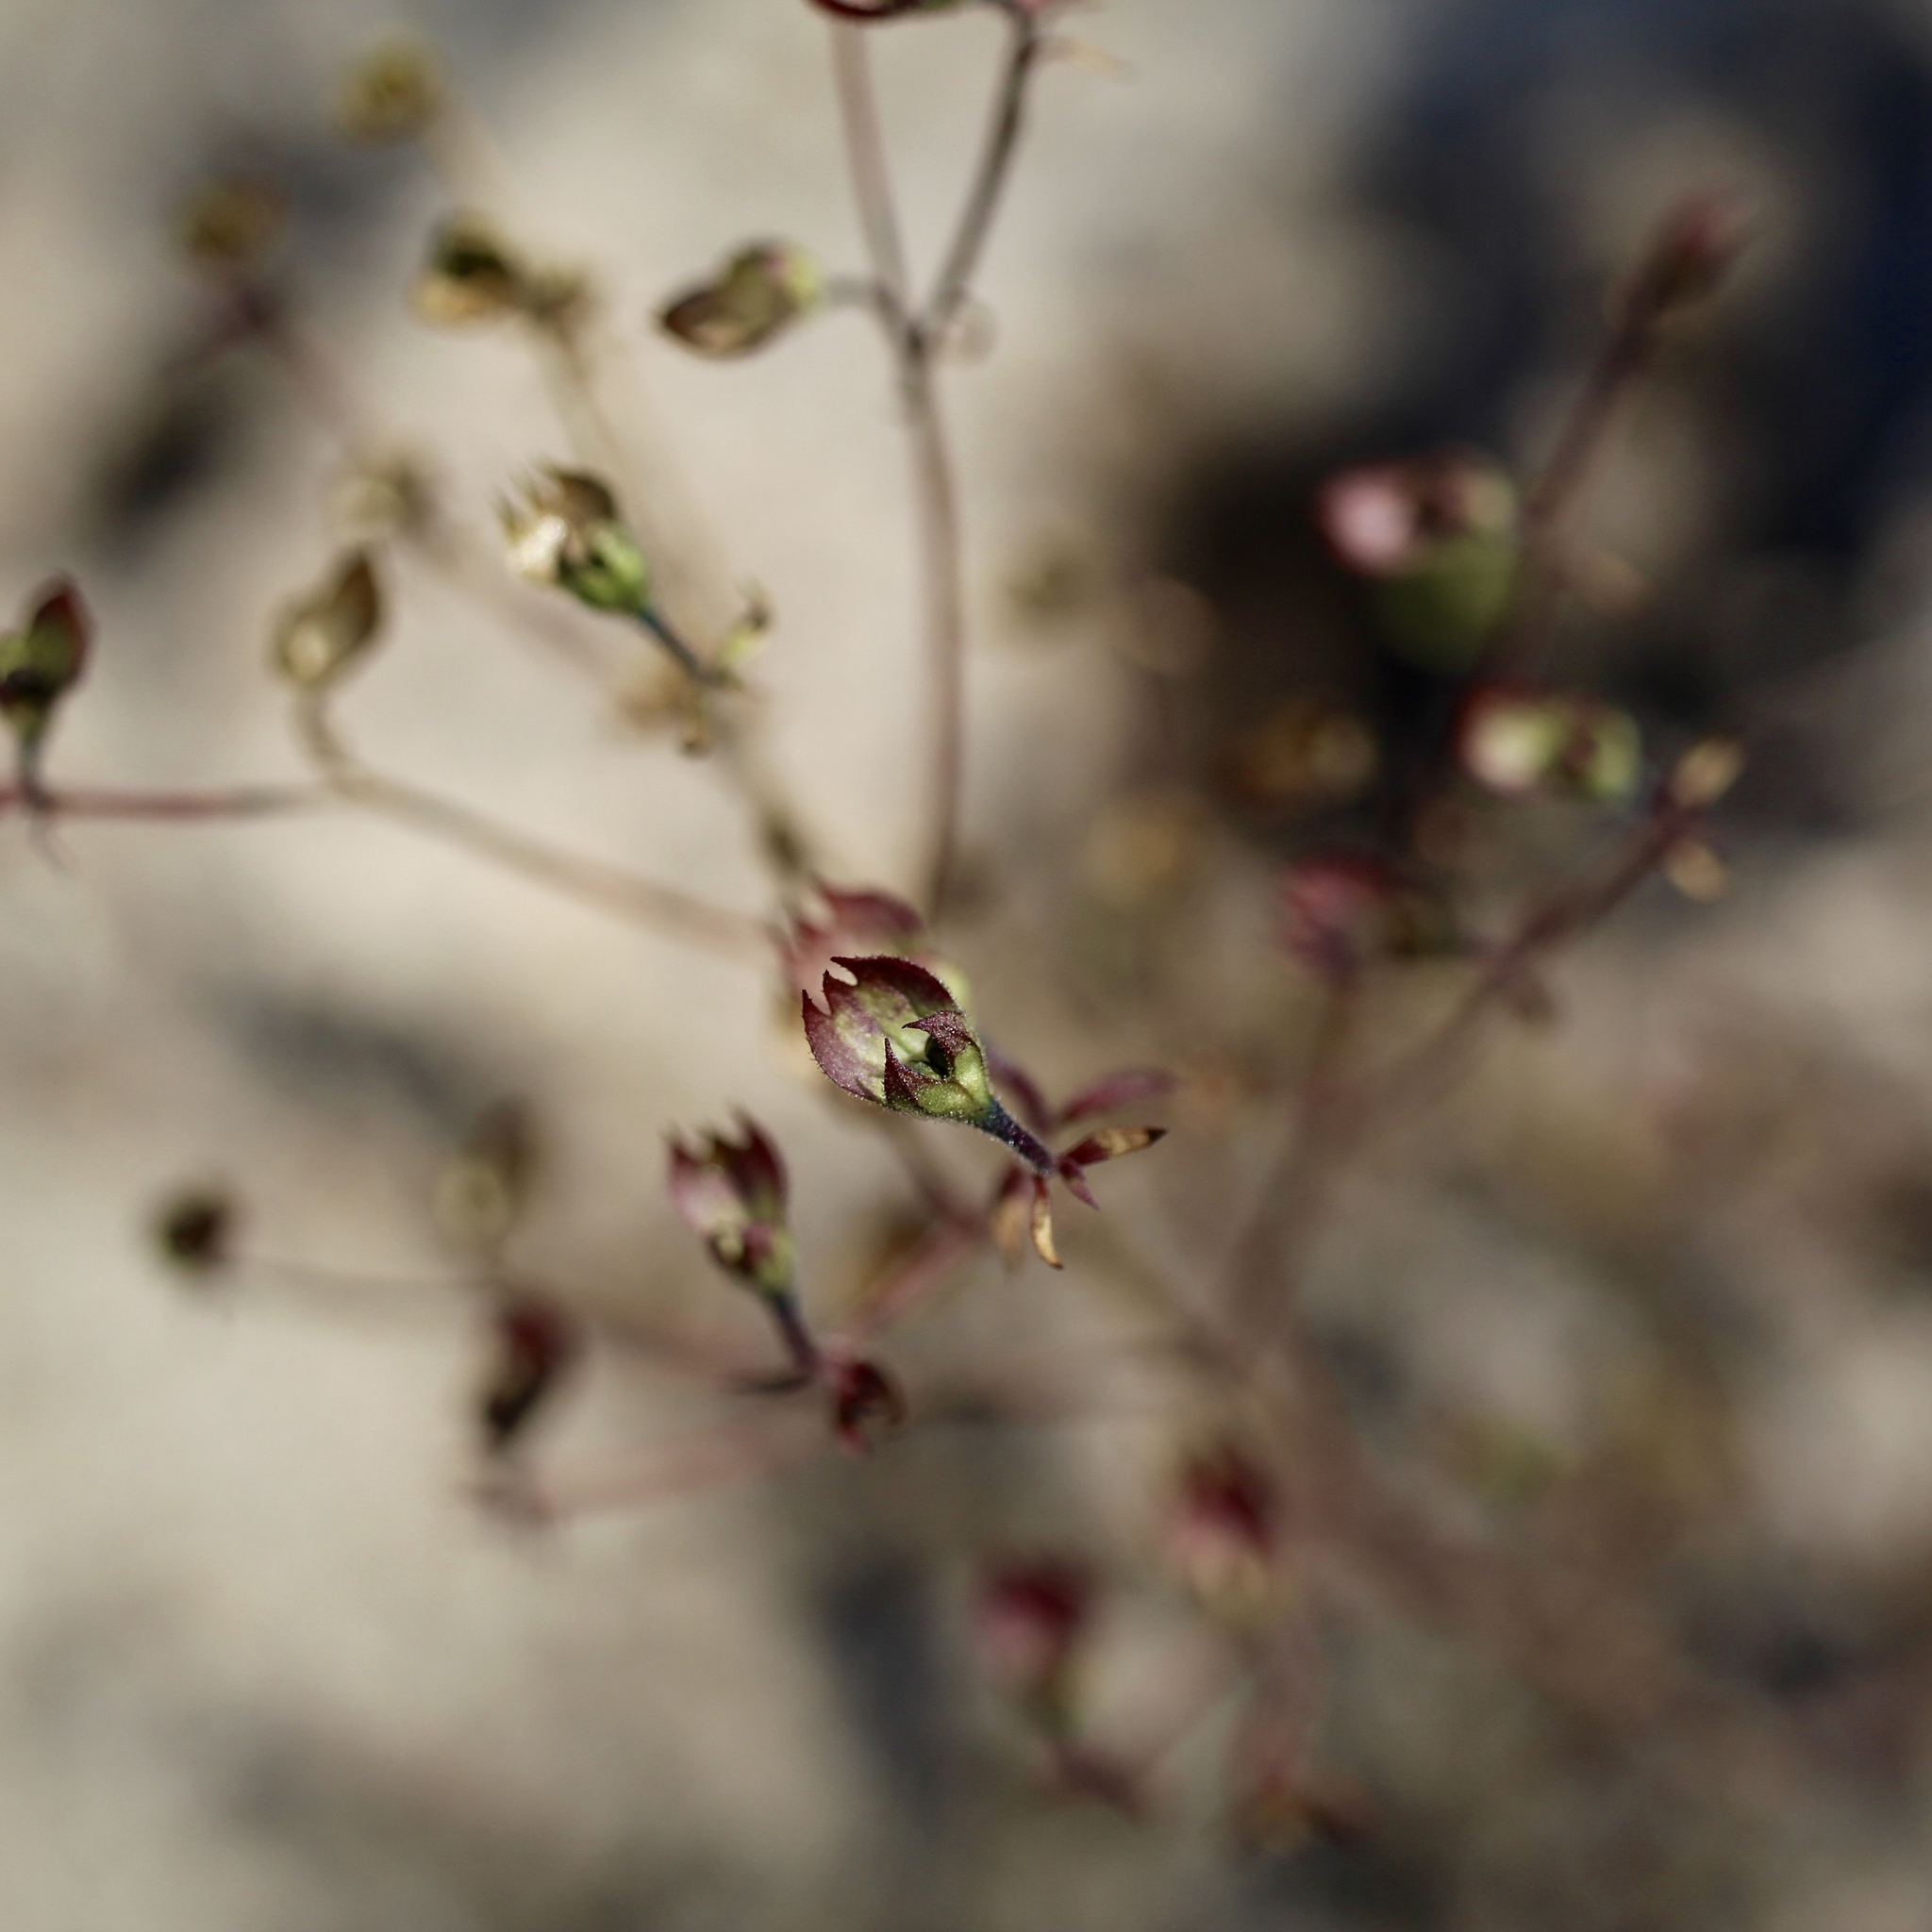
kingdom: Plantae
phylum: Tracheophyta
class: Magnoliopsida
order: Lamiales
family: Lamiaceae
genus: Trichostema
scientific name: Trichostema dichotomum
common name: Bastard pennyroyal
